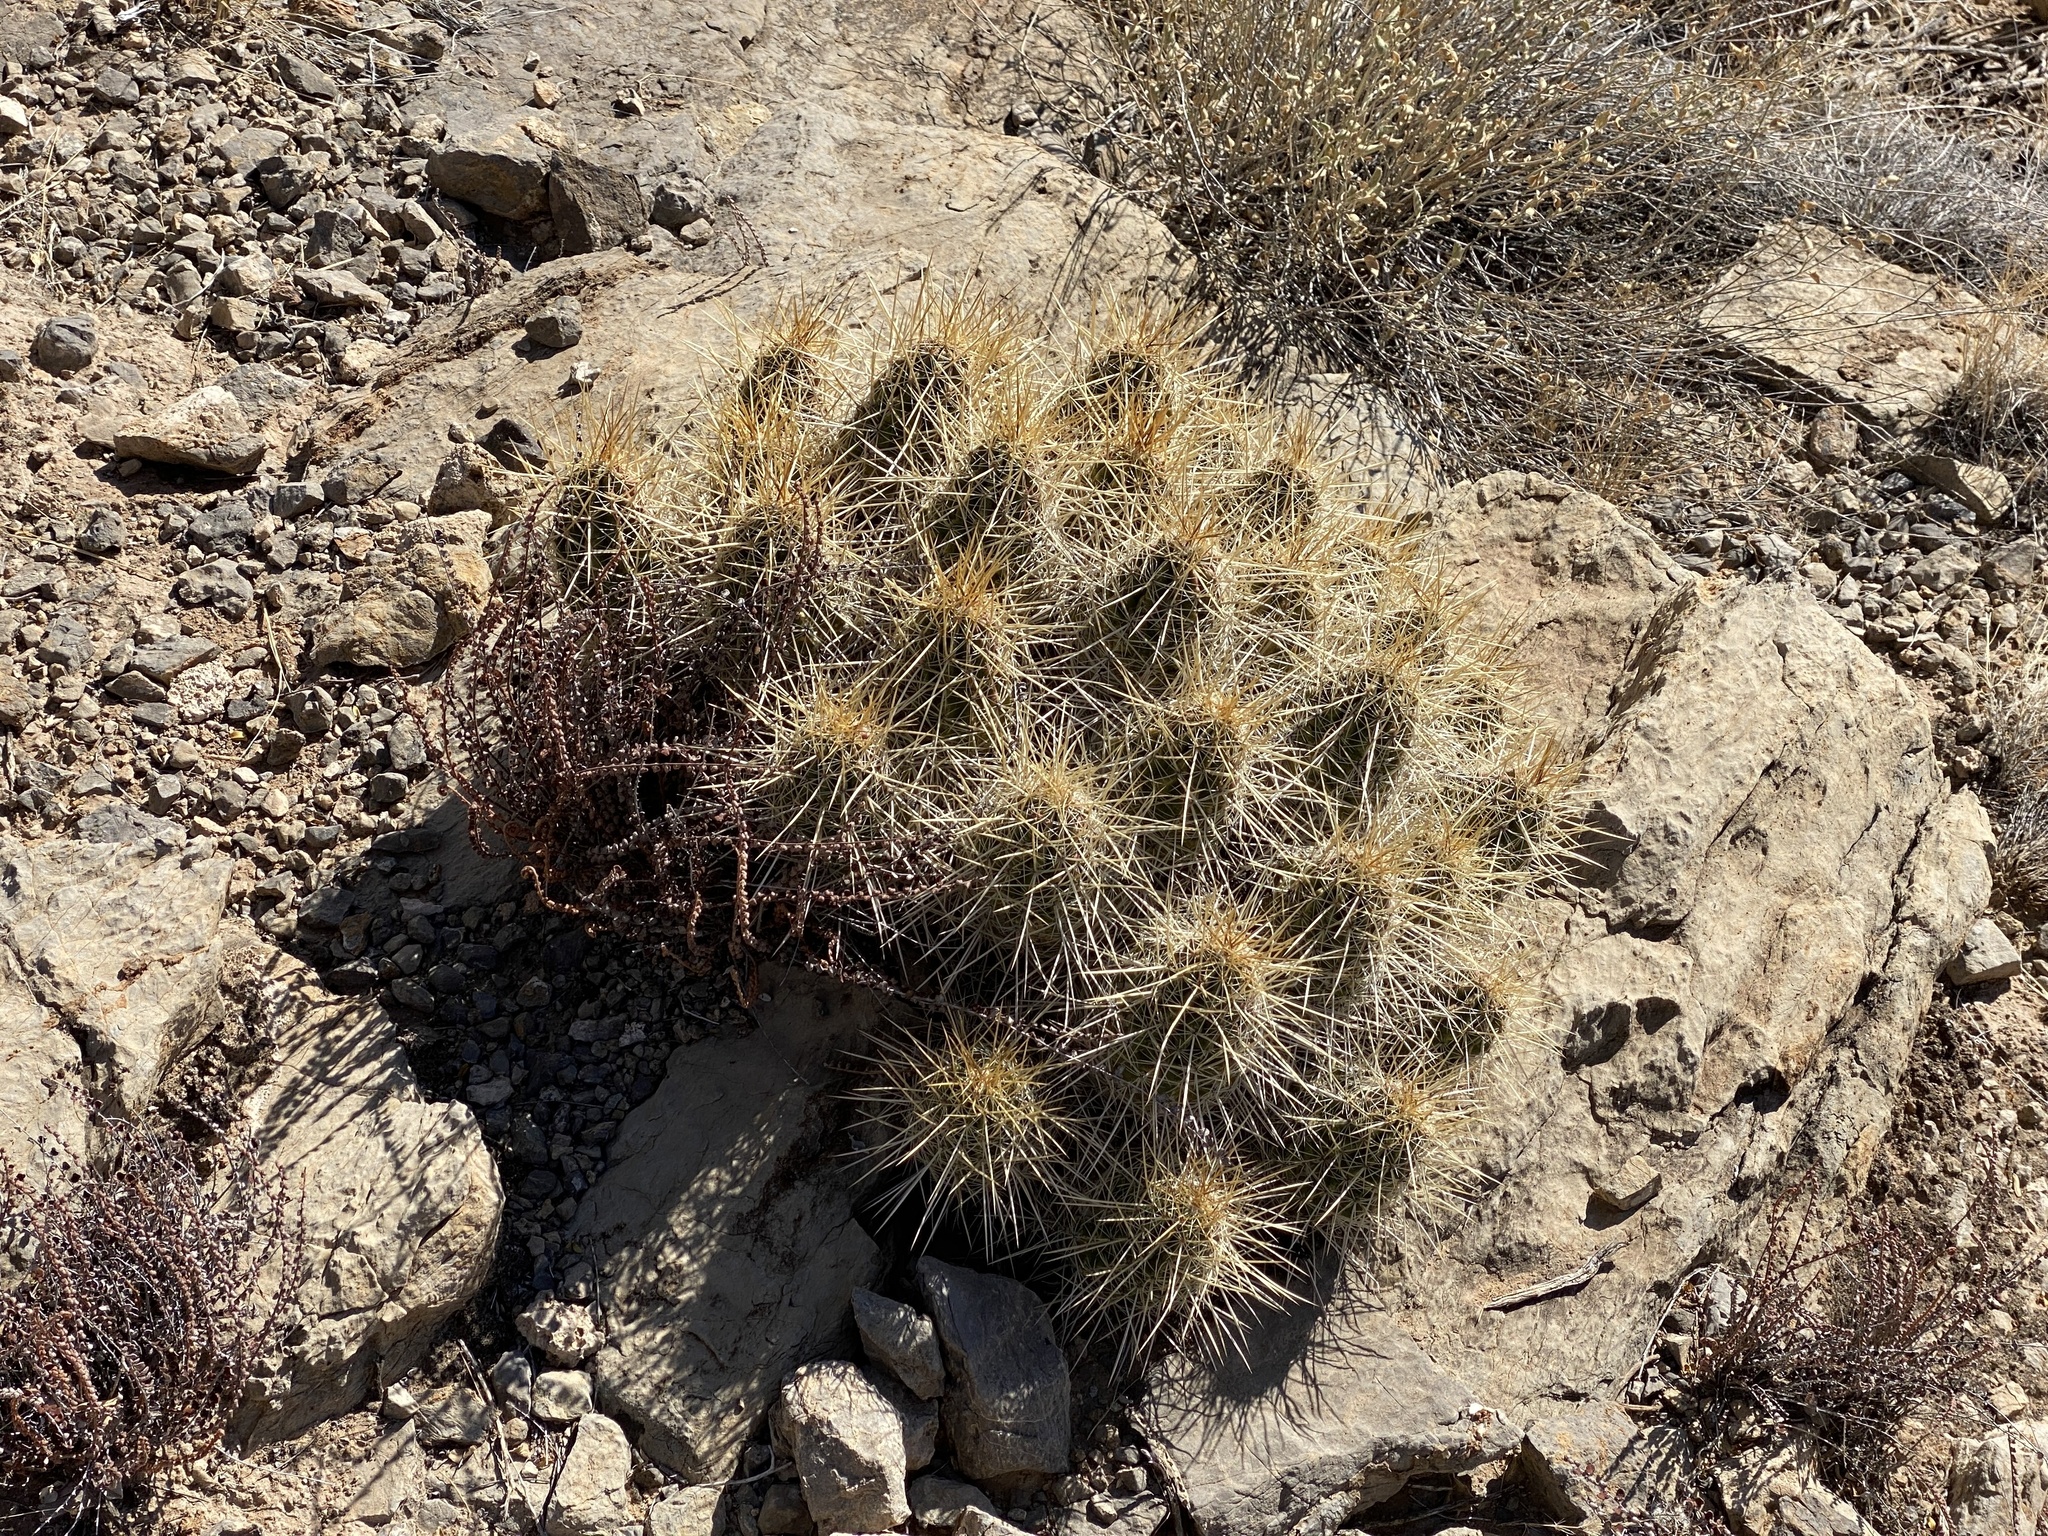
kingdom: Plantae
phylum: Tracheophyta
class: Magnoliopsida
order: Caryophyllales
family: Cactaceae
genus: Echinocereus
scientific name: Echinocereus stramineus
